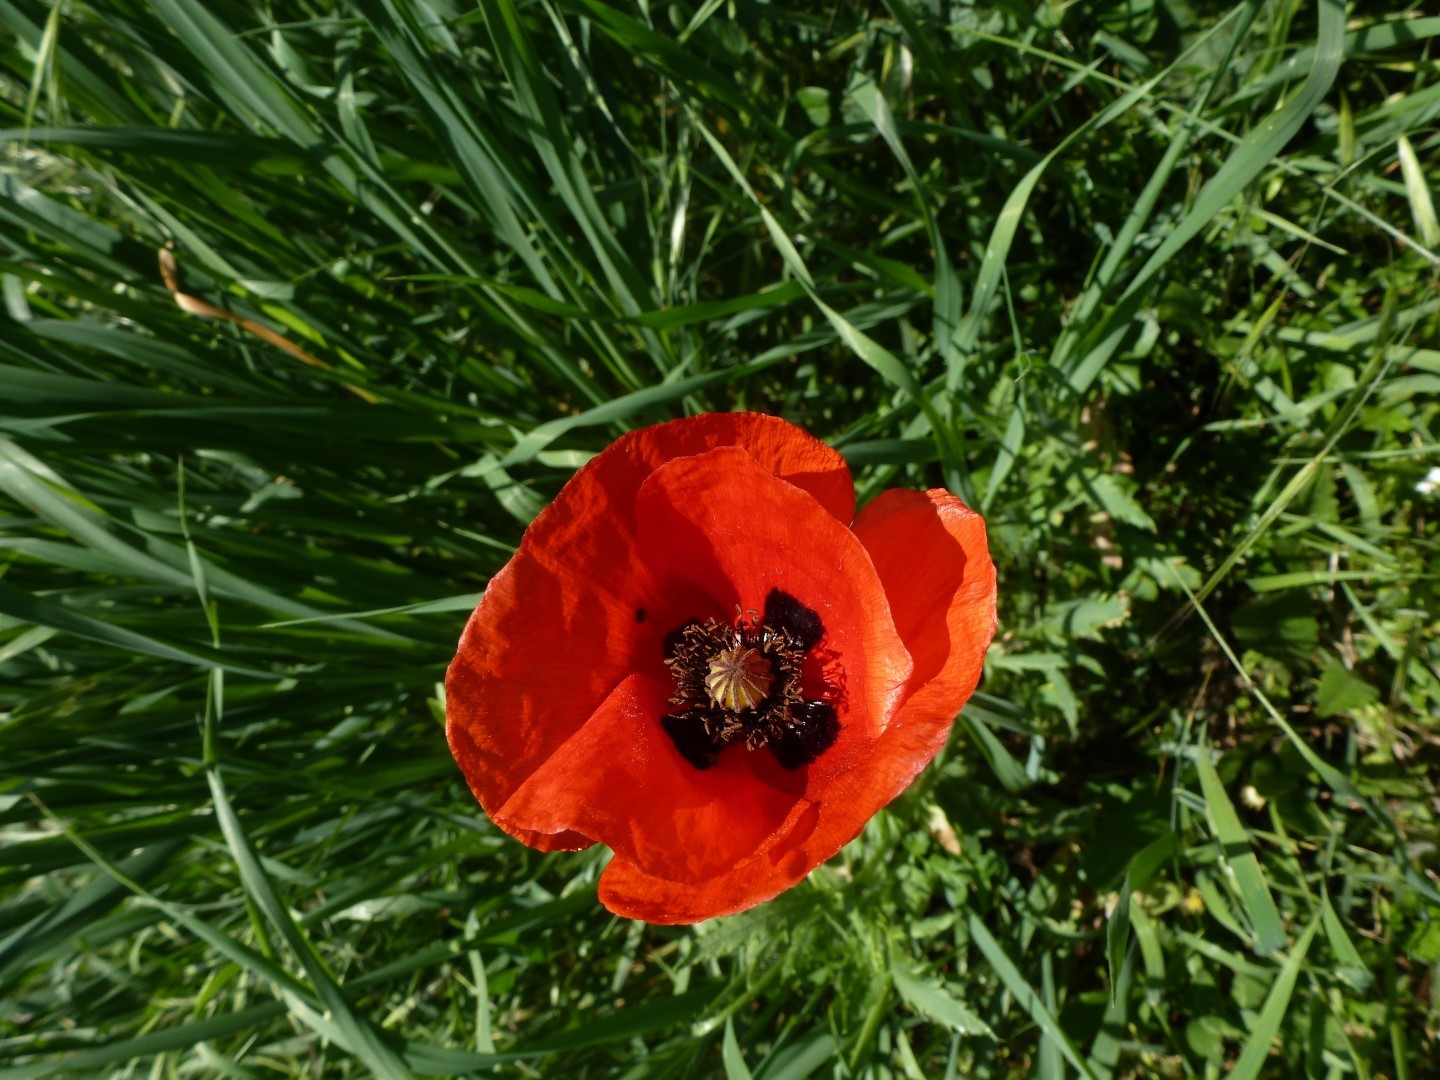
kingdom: Plantae
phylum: Tracheophyta
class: Magnoliopsida
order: Ranunculales
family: Papaveraceae
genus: Papaver
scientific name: Papaver rhoeas
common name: Corn poppy
